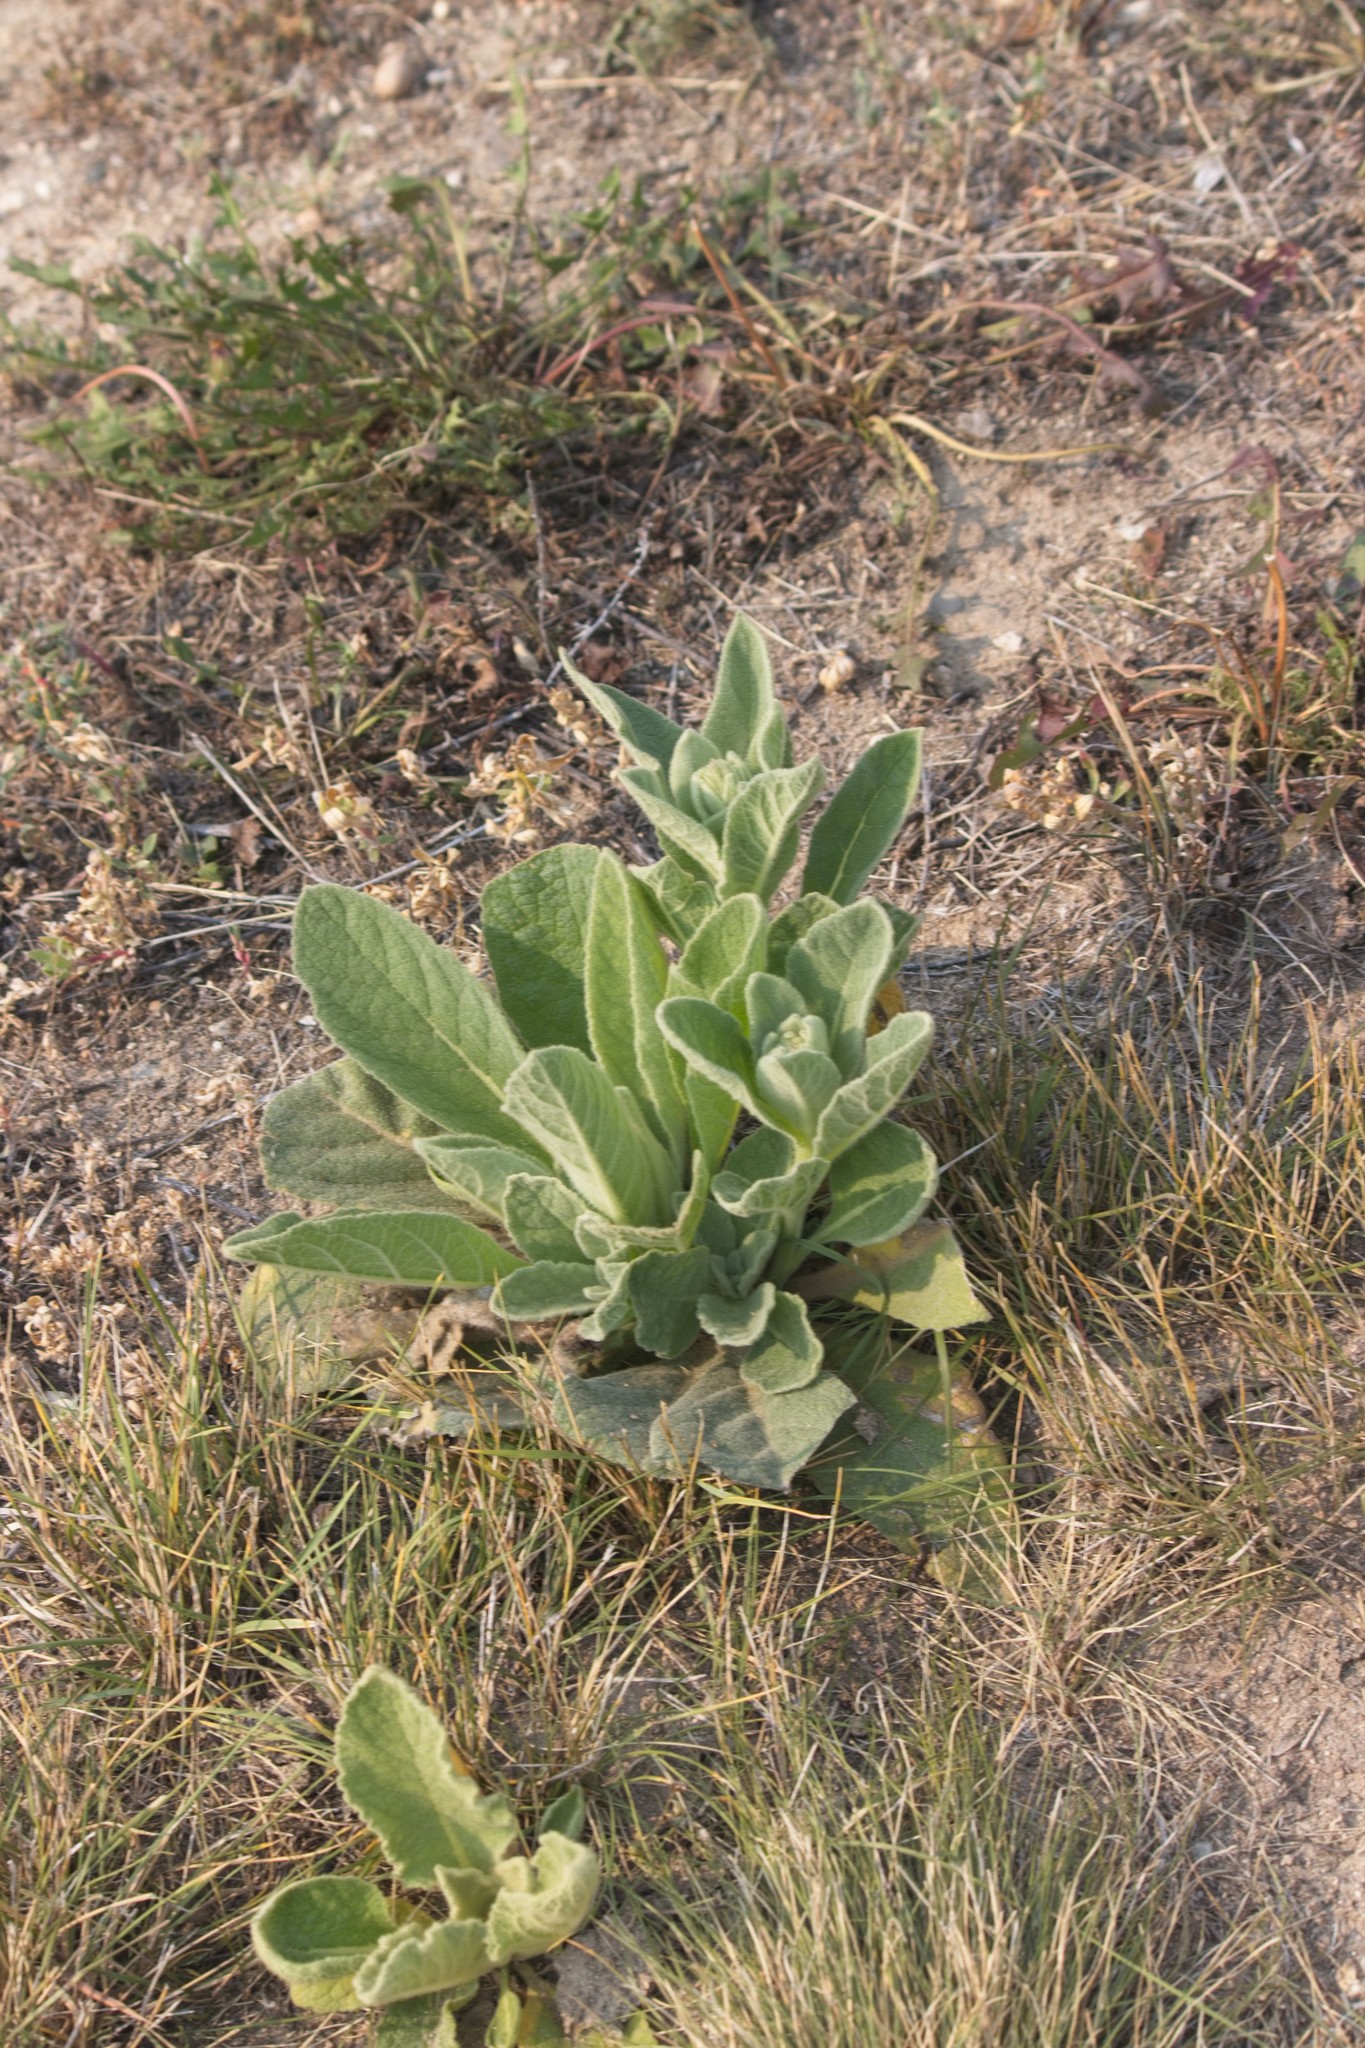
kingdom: Plantae
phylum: Tracheophyta
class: Magnoliopsida
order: Lamiales
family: Scrophulariaceae
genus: Verbascum
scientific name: Verbascum thapsus
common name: Common mullein
